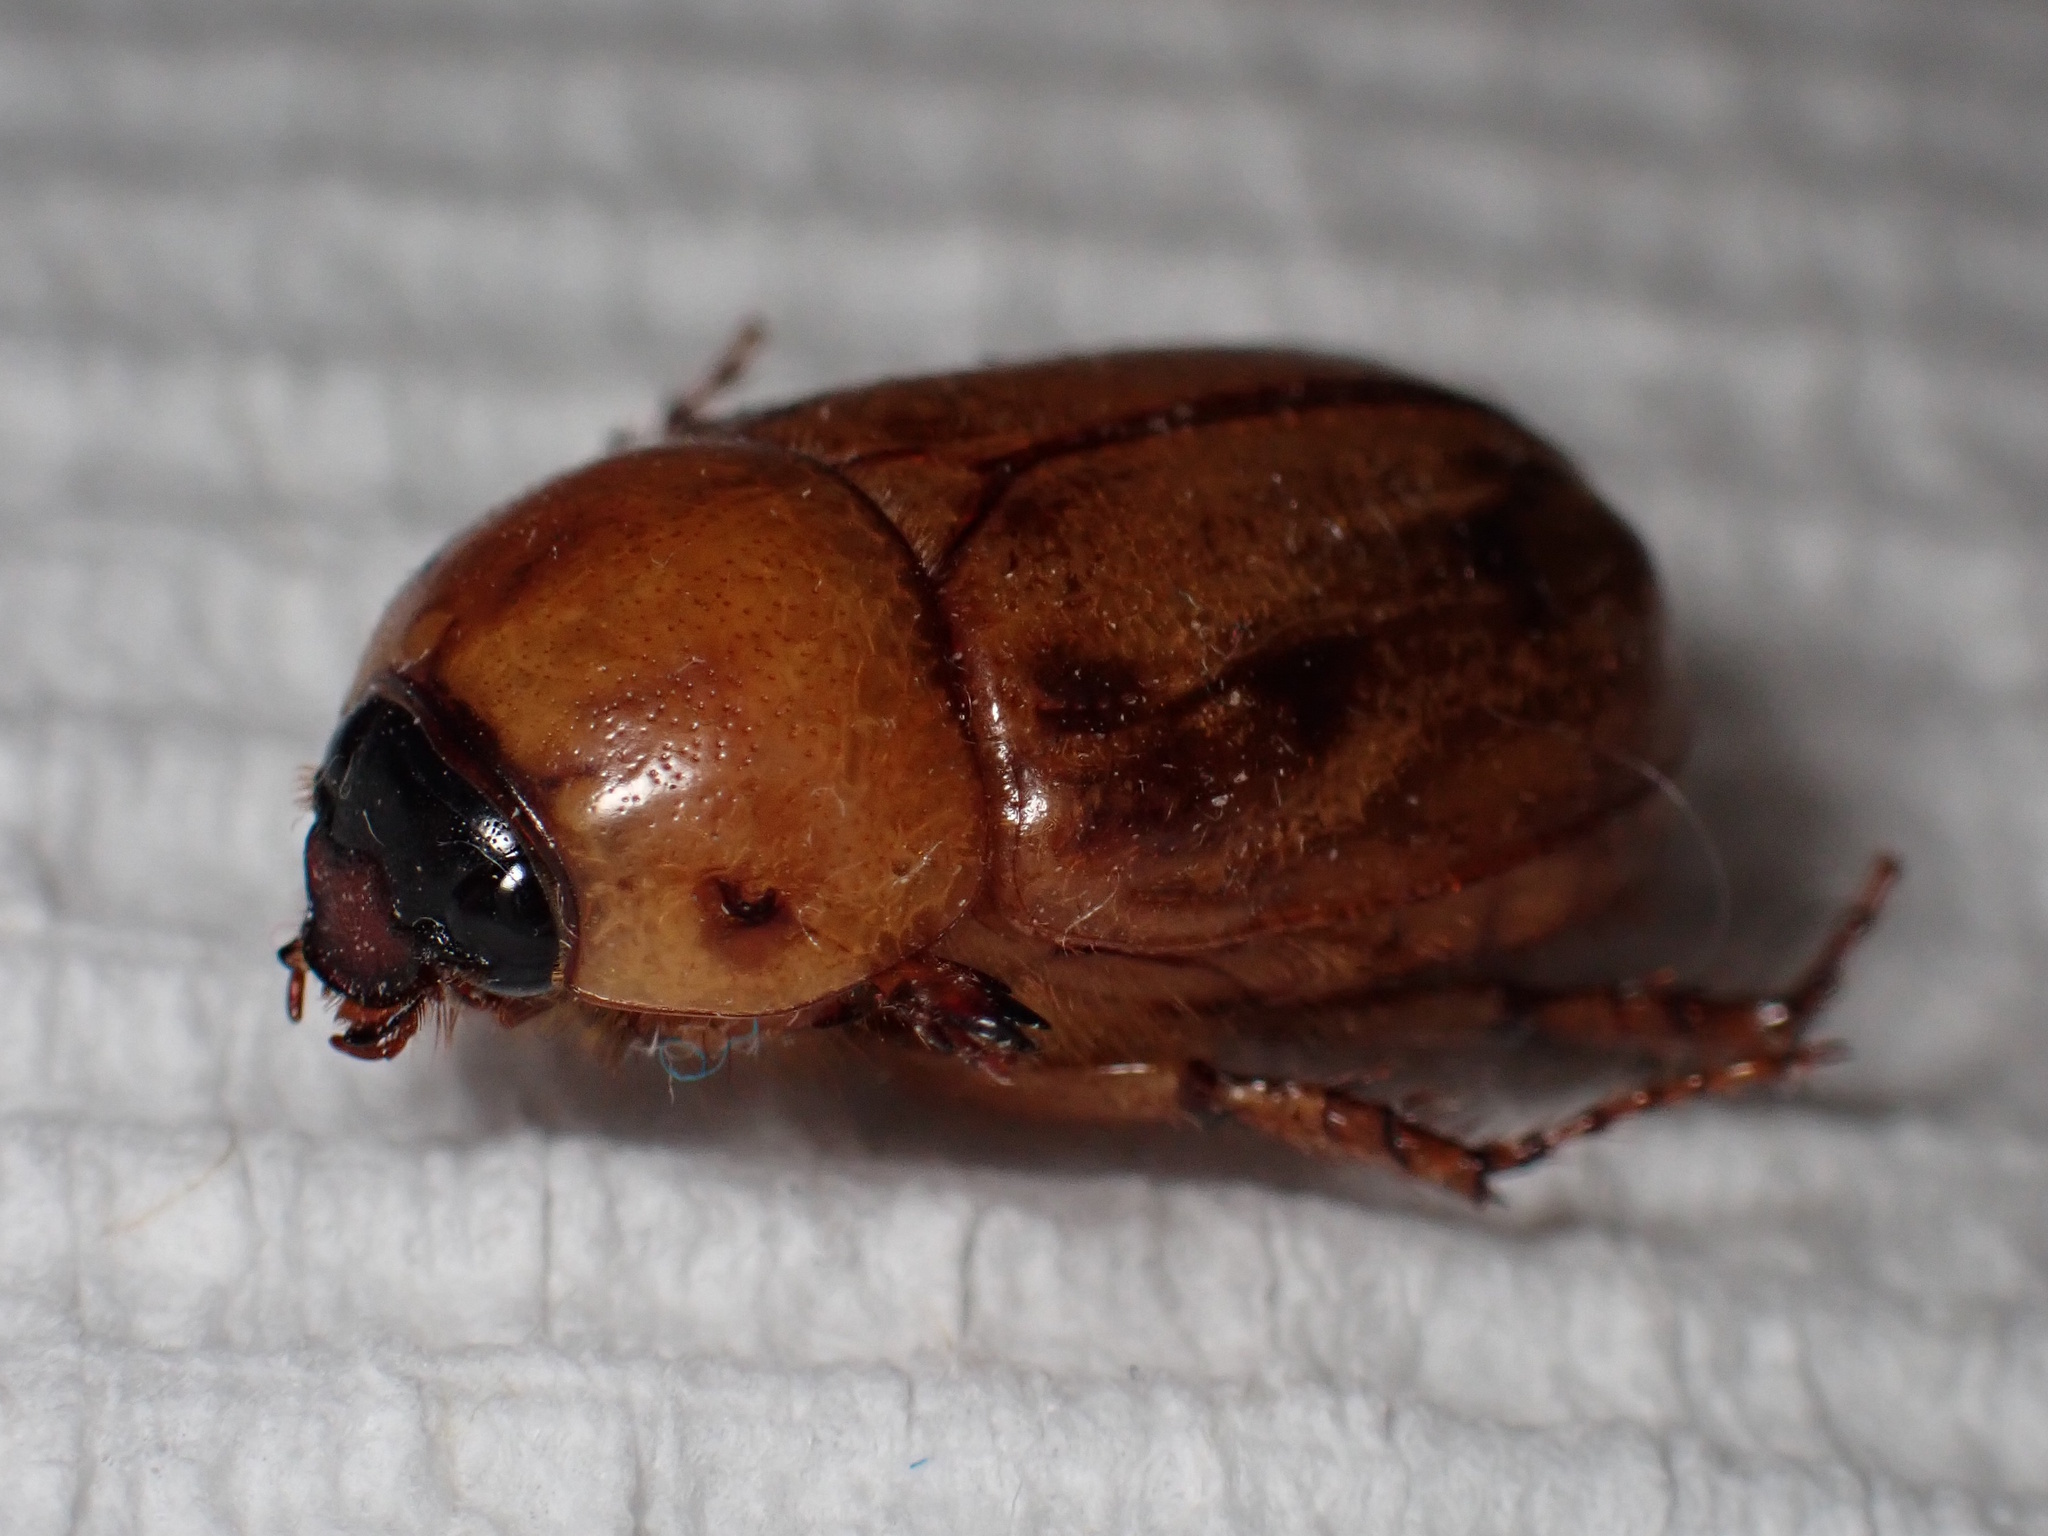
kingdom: Animalia
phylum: Arthropoda
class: Insecta
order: Coleoptera
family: Scarabaeidae
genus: Cyclocephala
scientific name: Cyclocephala signaticollis
